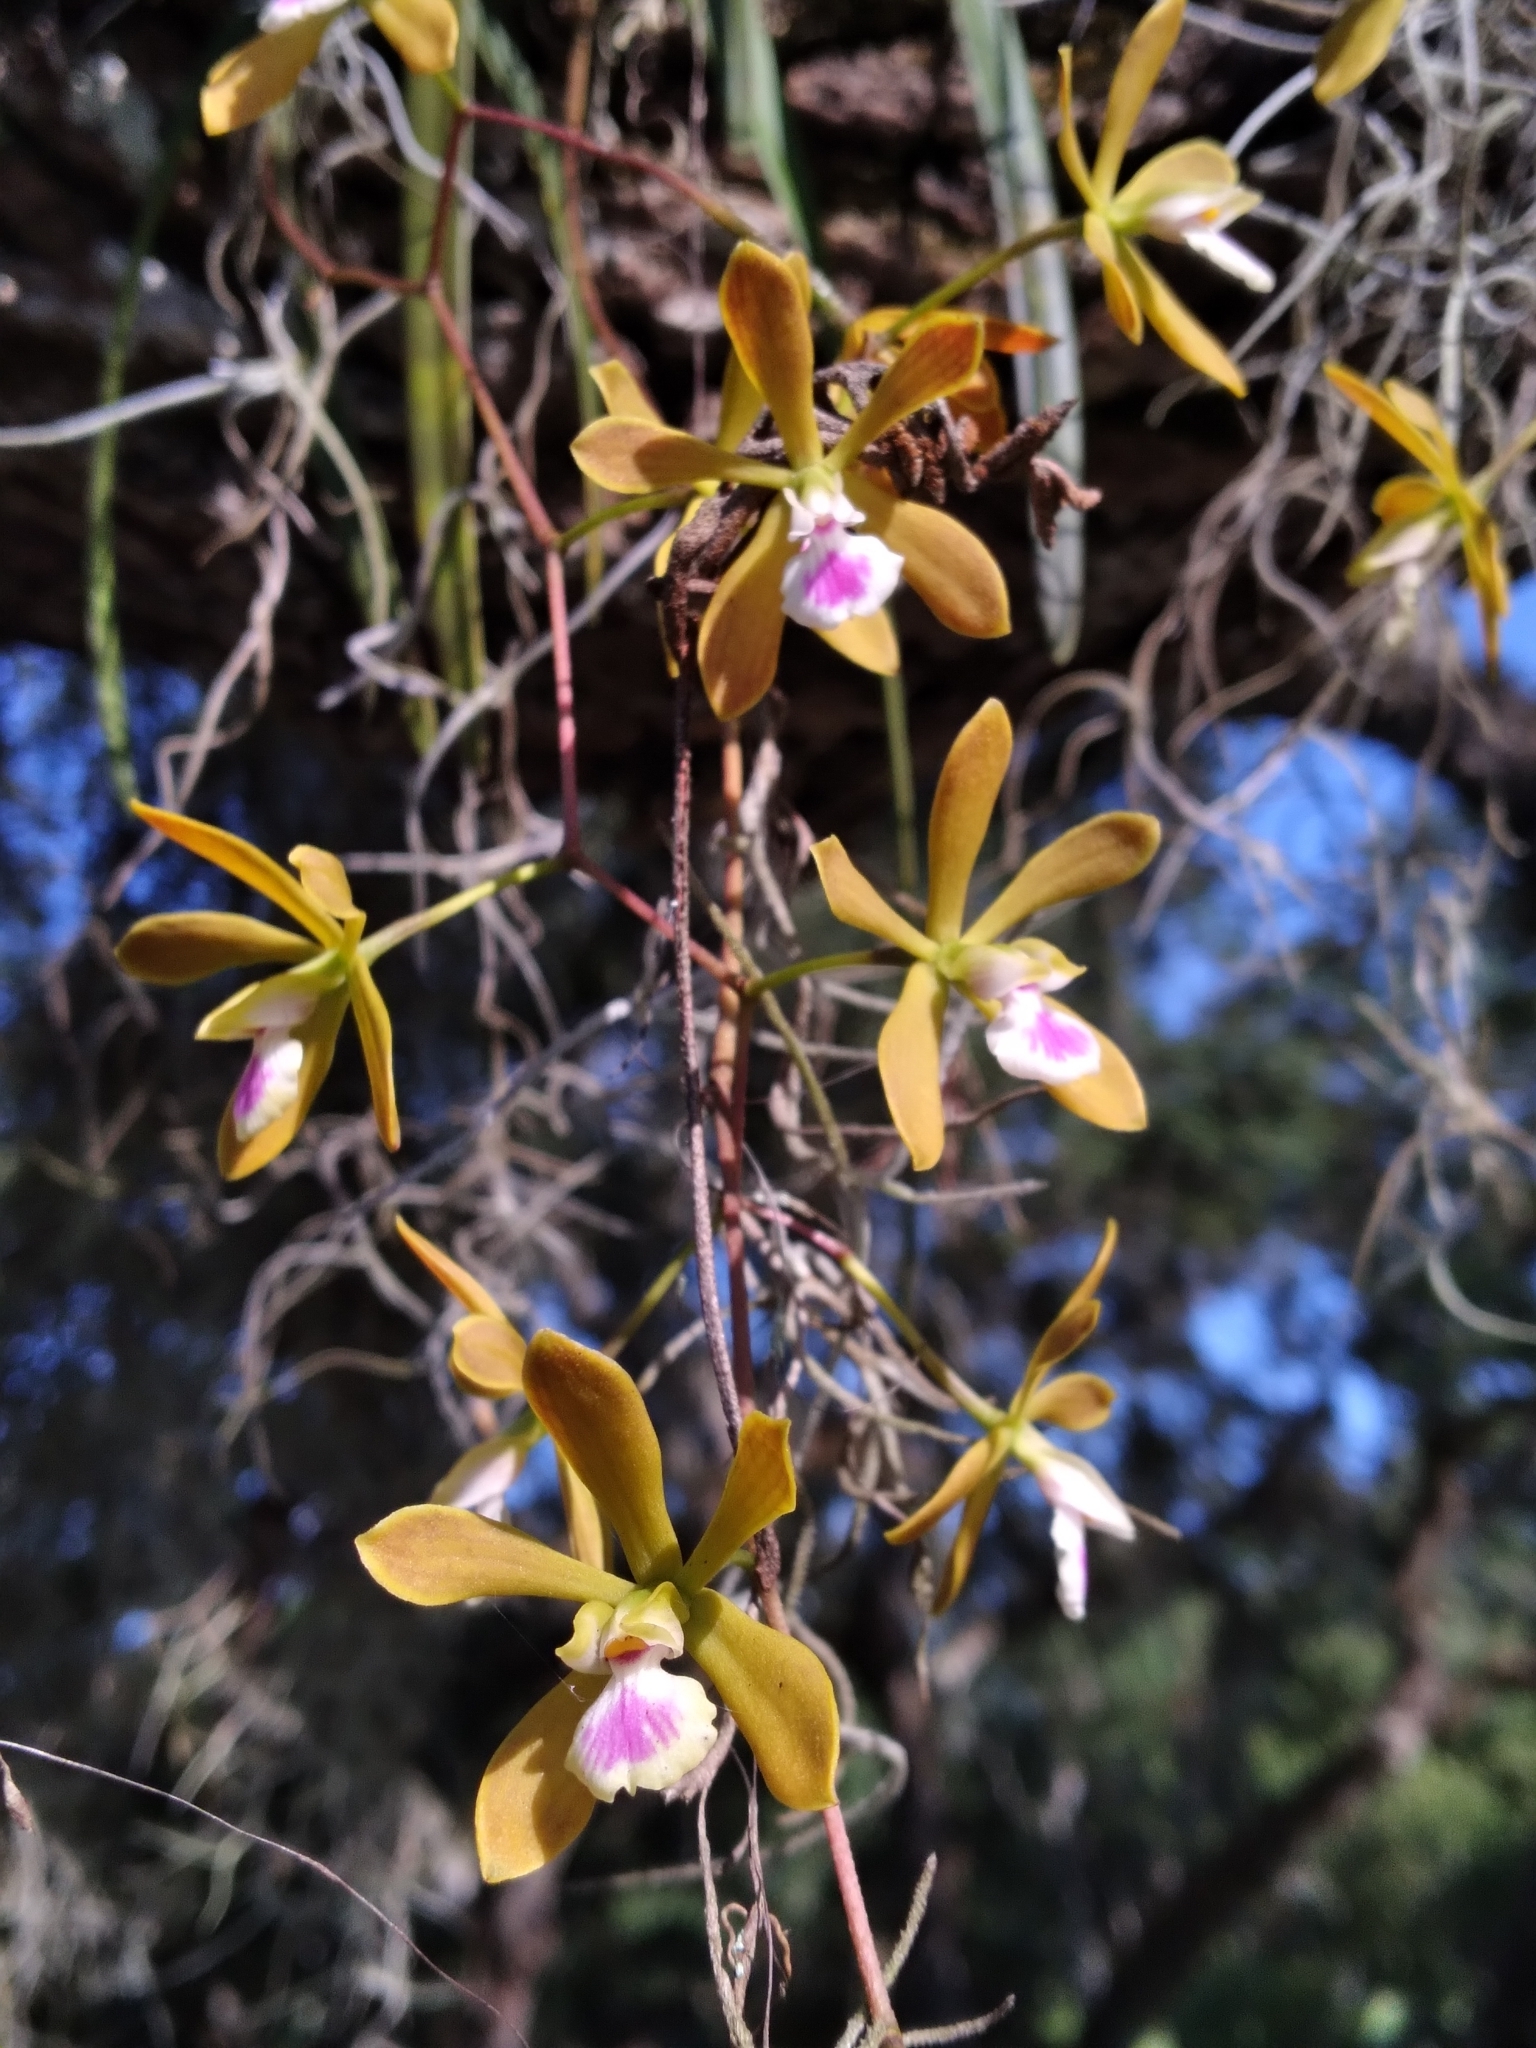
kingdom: Plantae
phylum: Tracheophyta
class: Liliopsida
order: Asparagales
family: Orchidaceae
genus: Encyclia
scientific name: Encyclia tampensis
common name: Florida butterfly orchid
